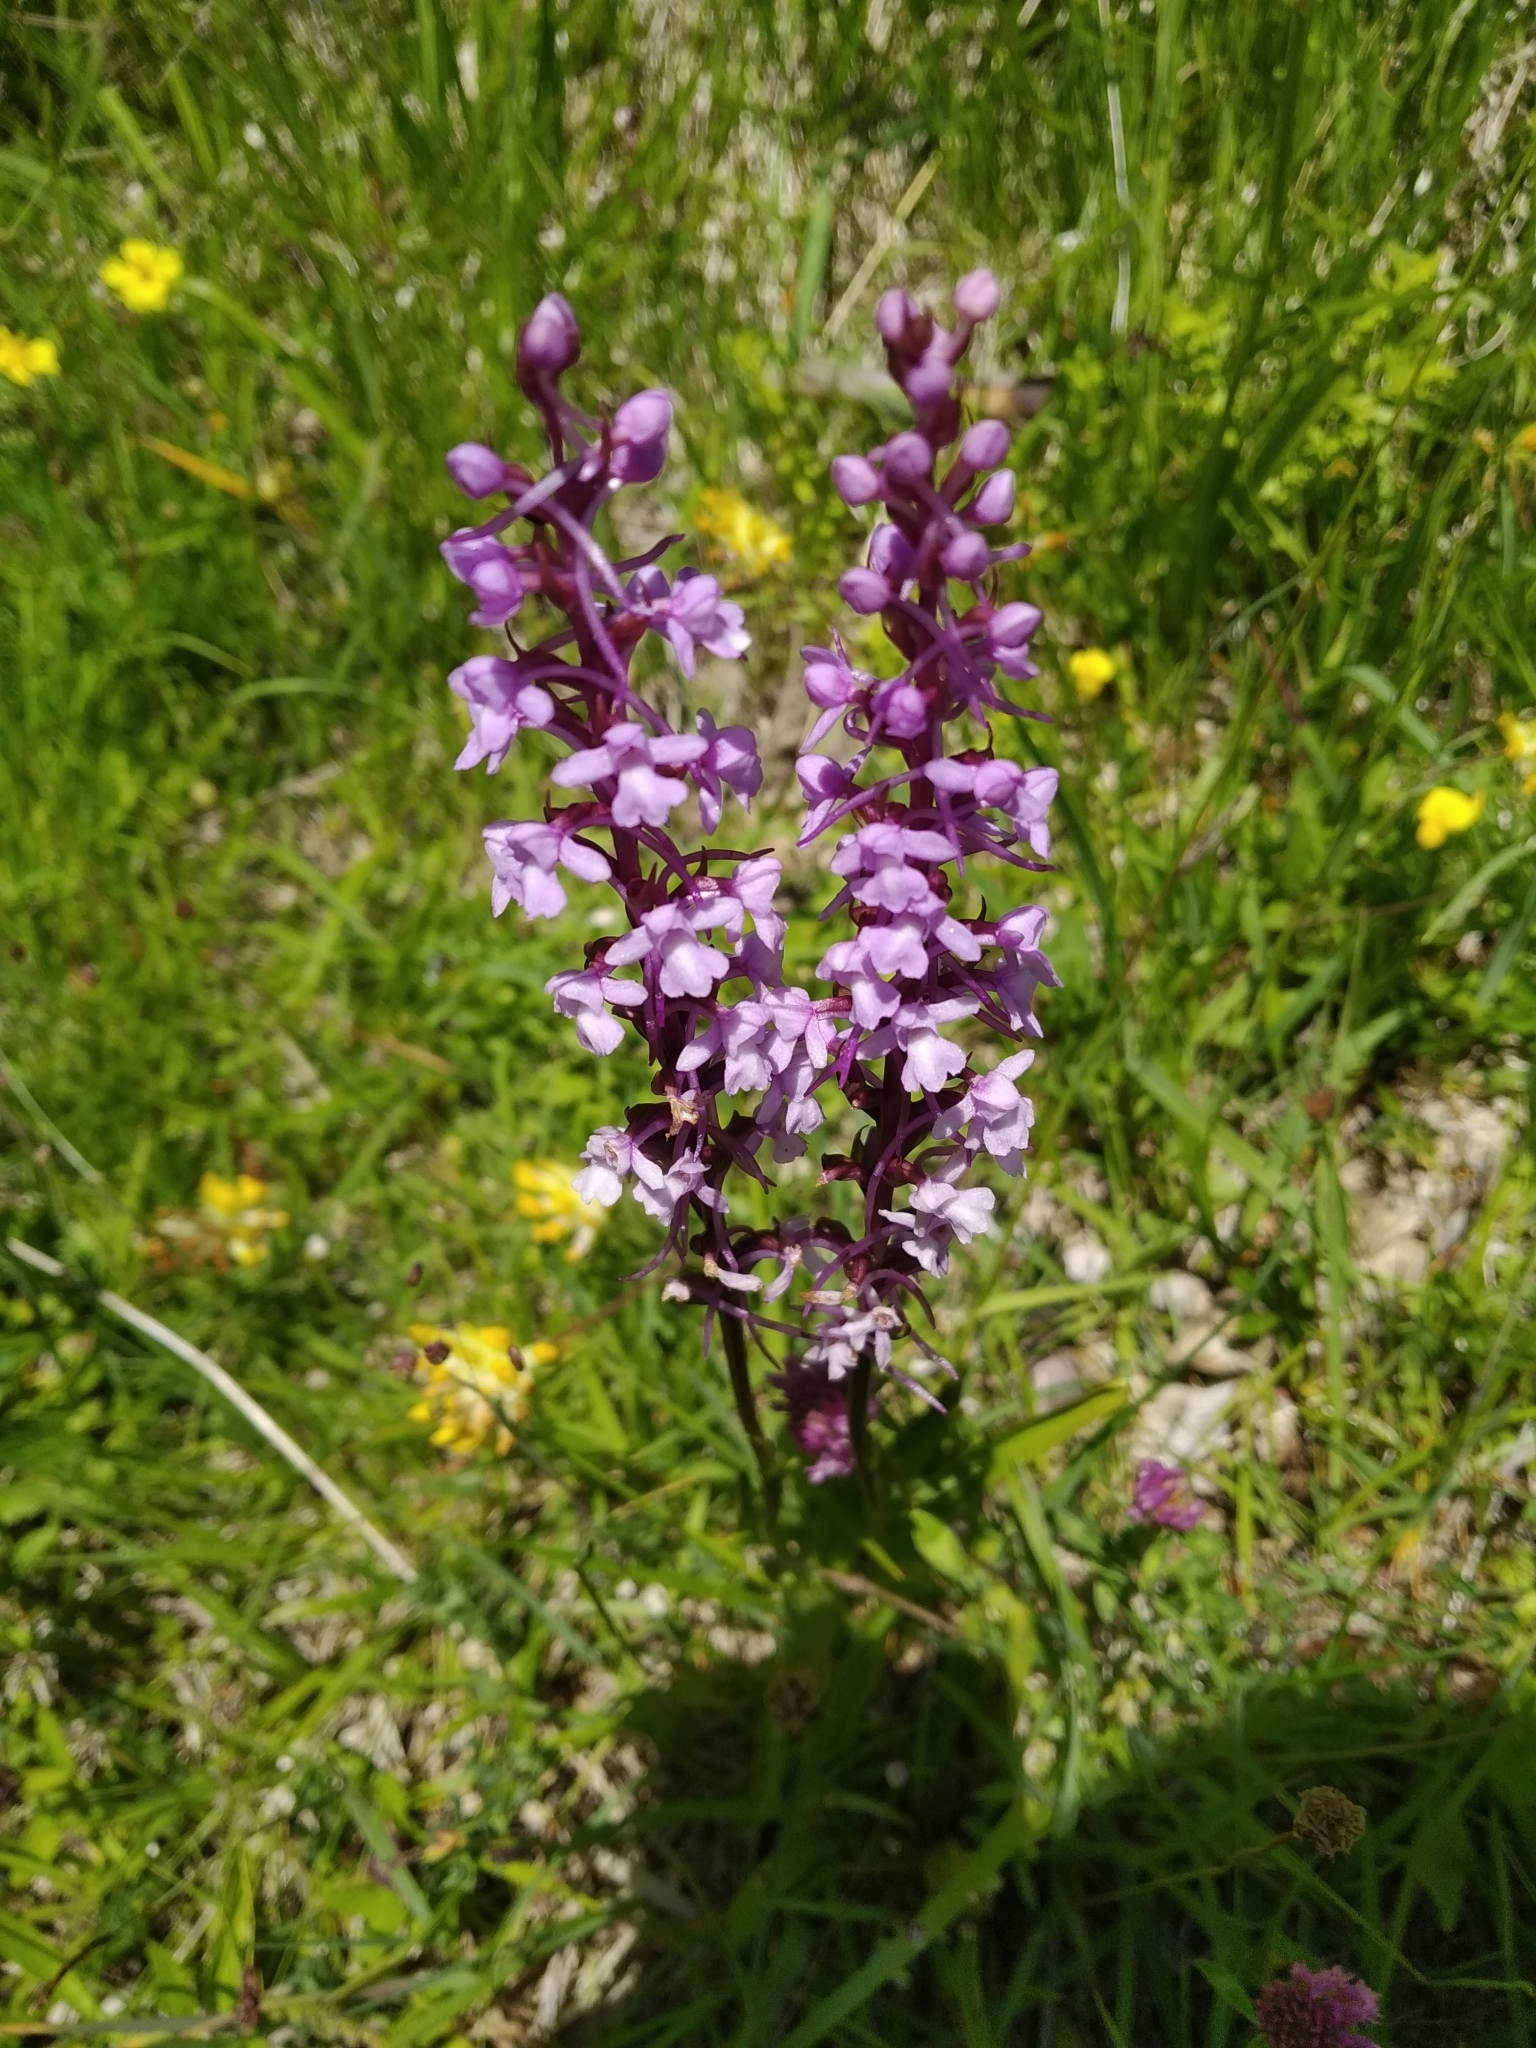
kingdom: Plantae
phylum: Tracheophyta
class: Liliopsida
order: Asparagales
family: Orchidaceae
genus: Gymnadenia
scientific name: Gymnadenia conopsea
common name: Fragrant orchid
